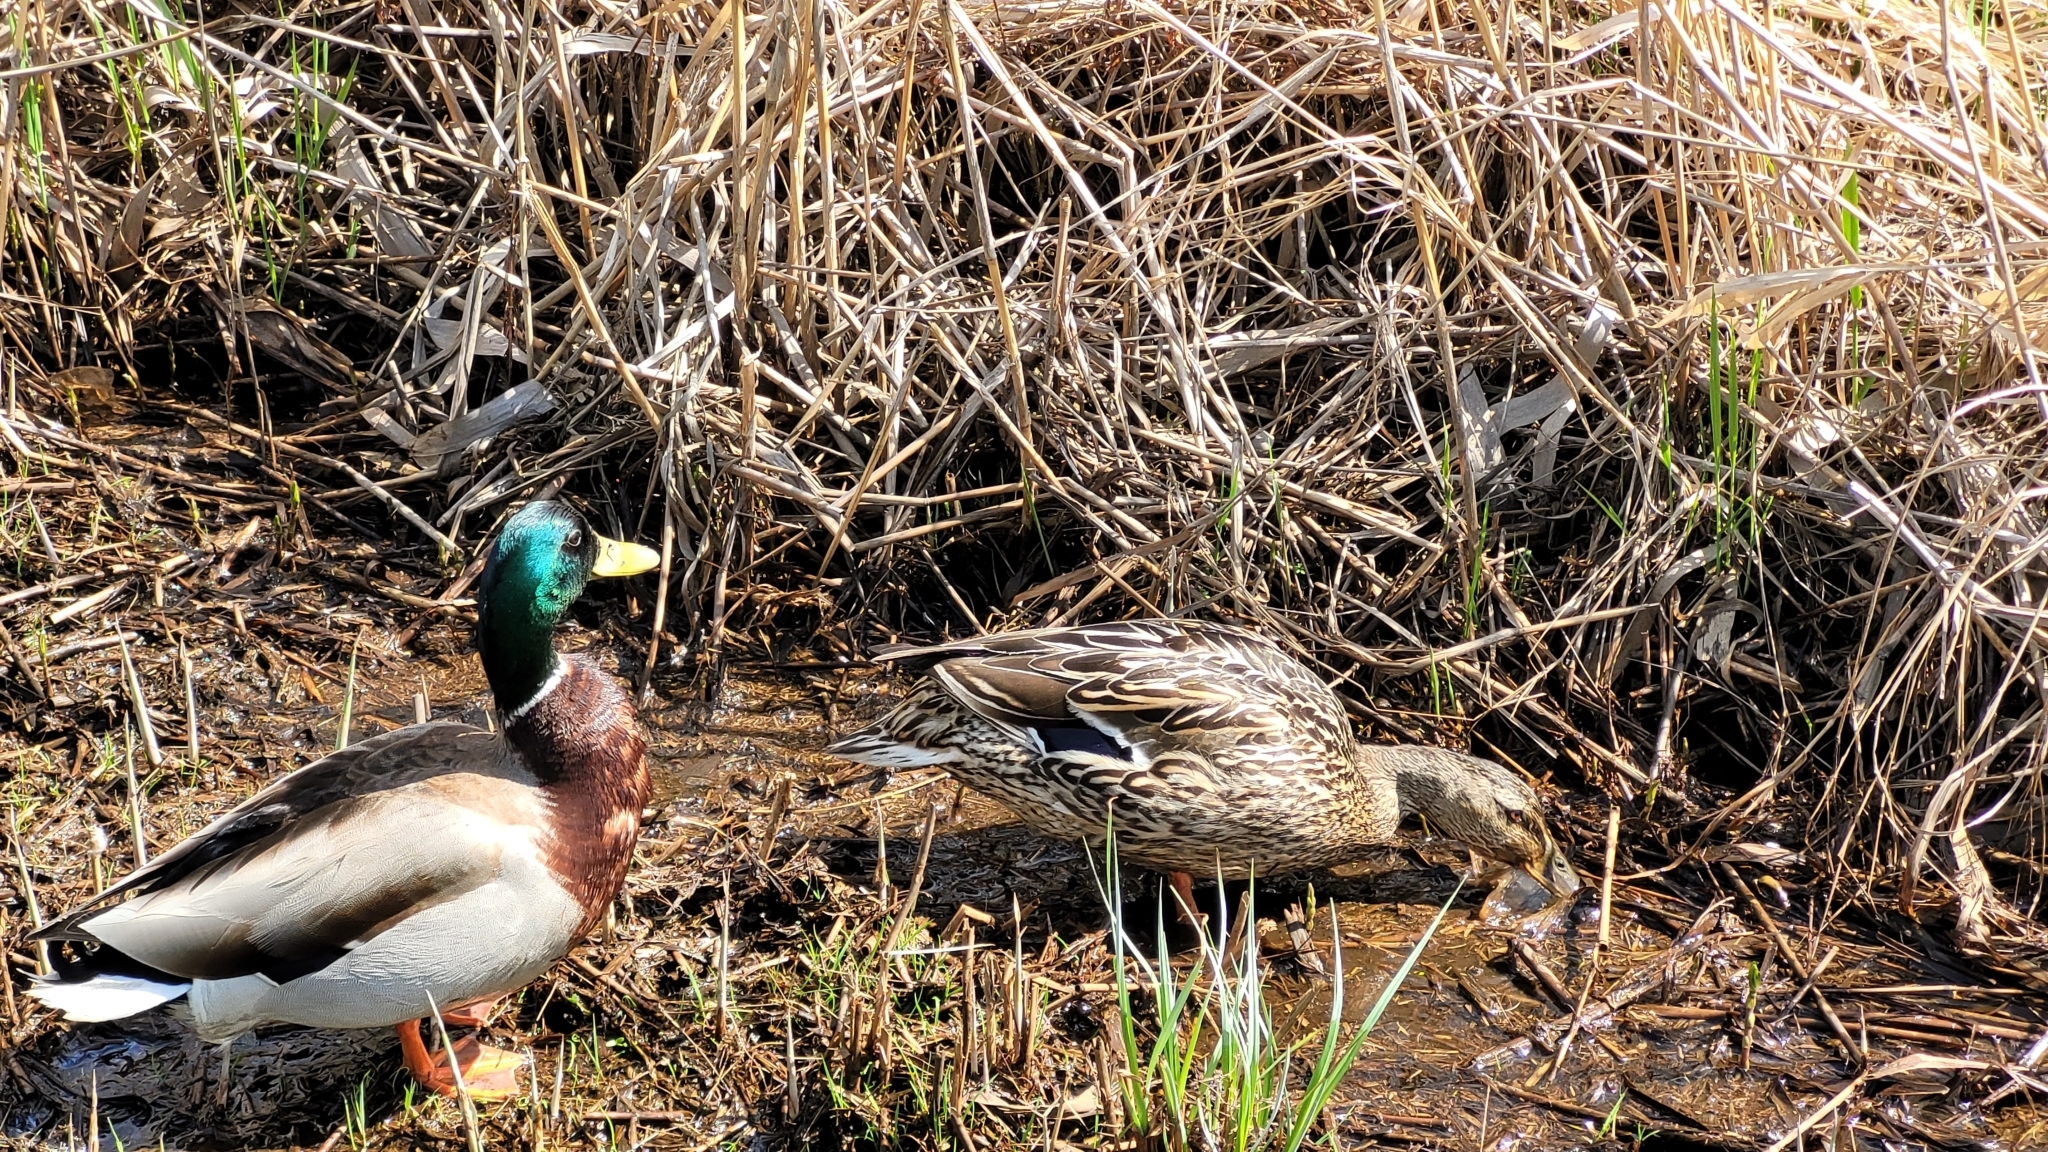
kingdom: Animalia
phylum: Chordata
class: Aves
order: Anseriformes
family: Anatidae
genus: Anas
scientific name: Anas platyrhynchos
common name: Mallard
